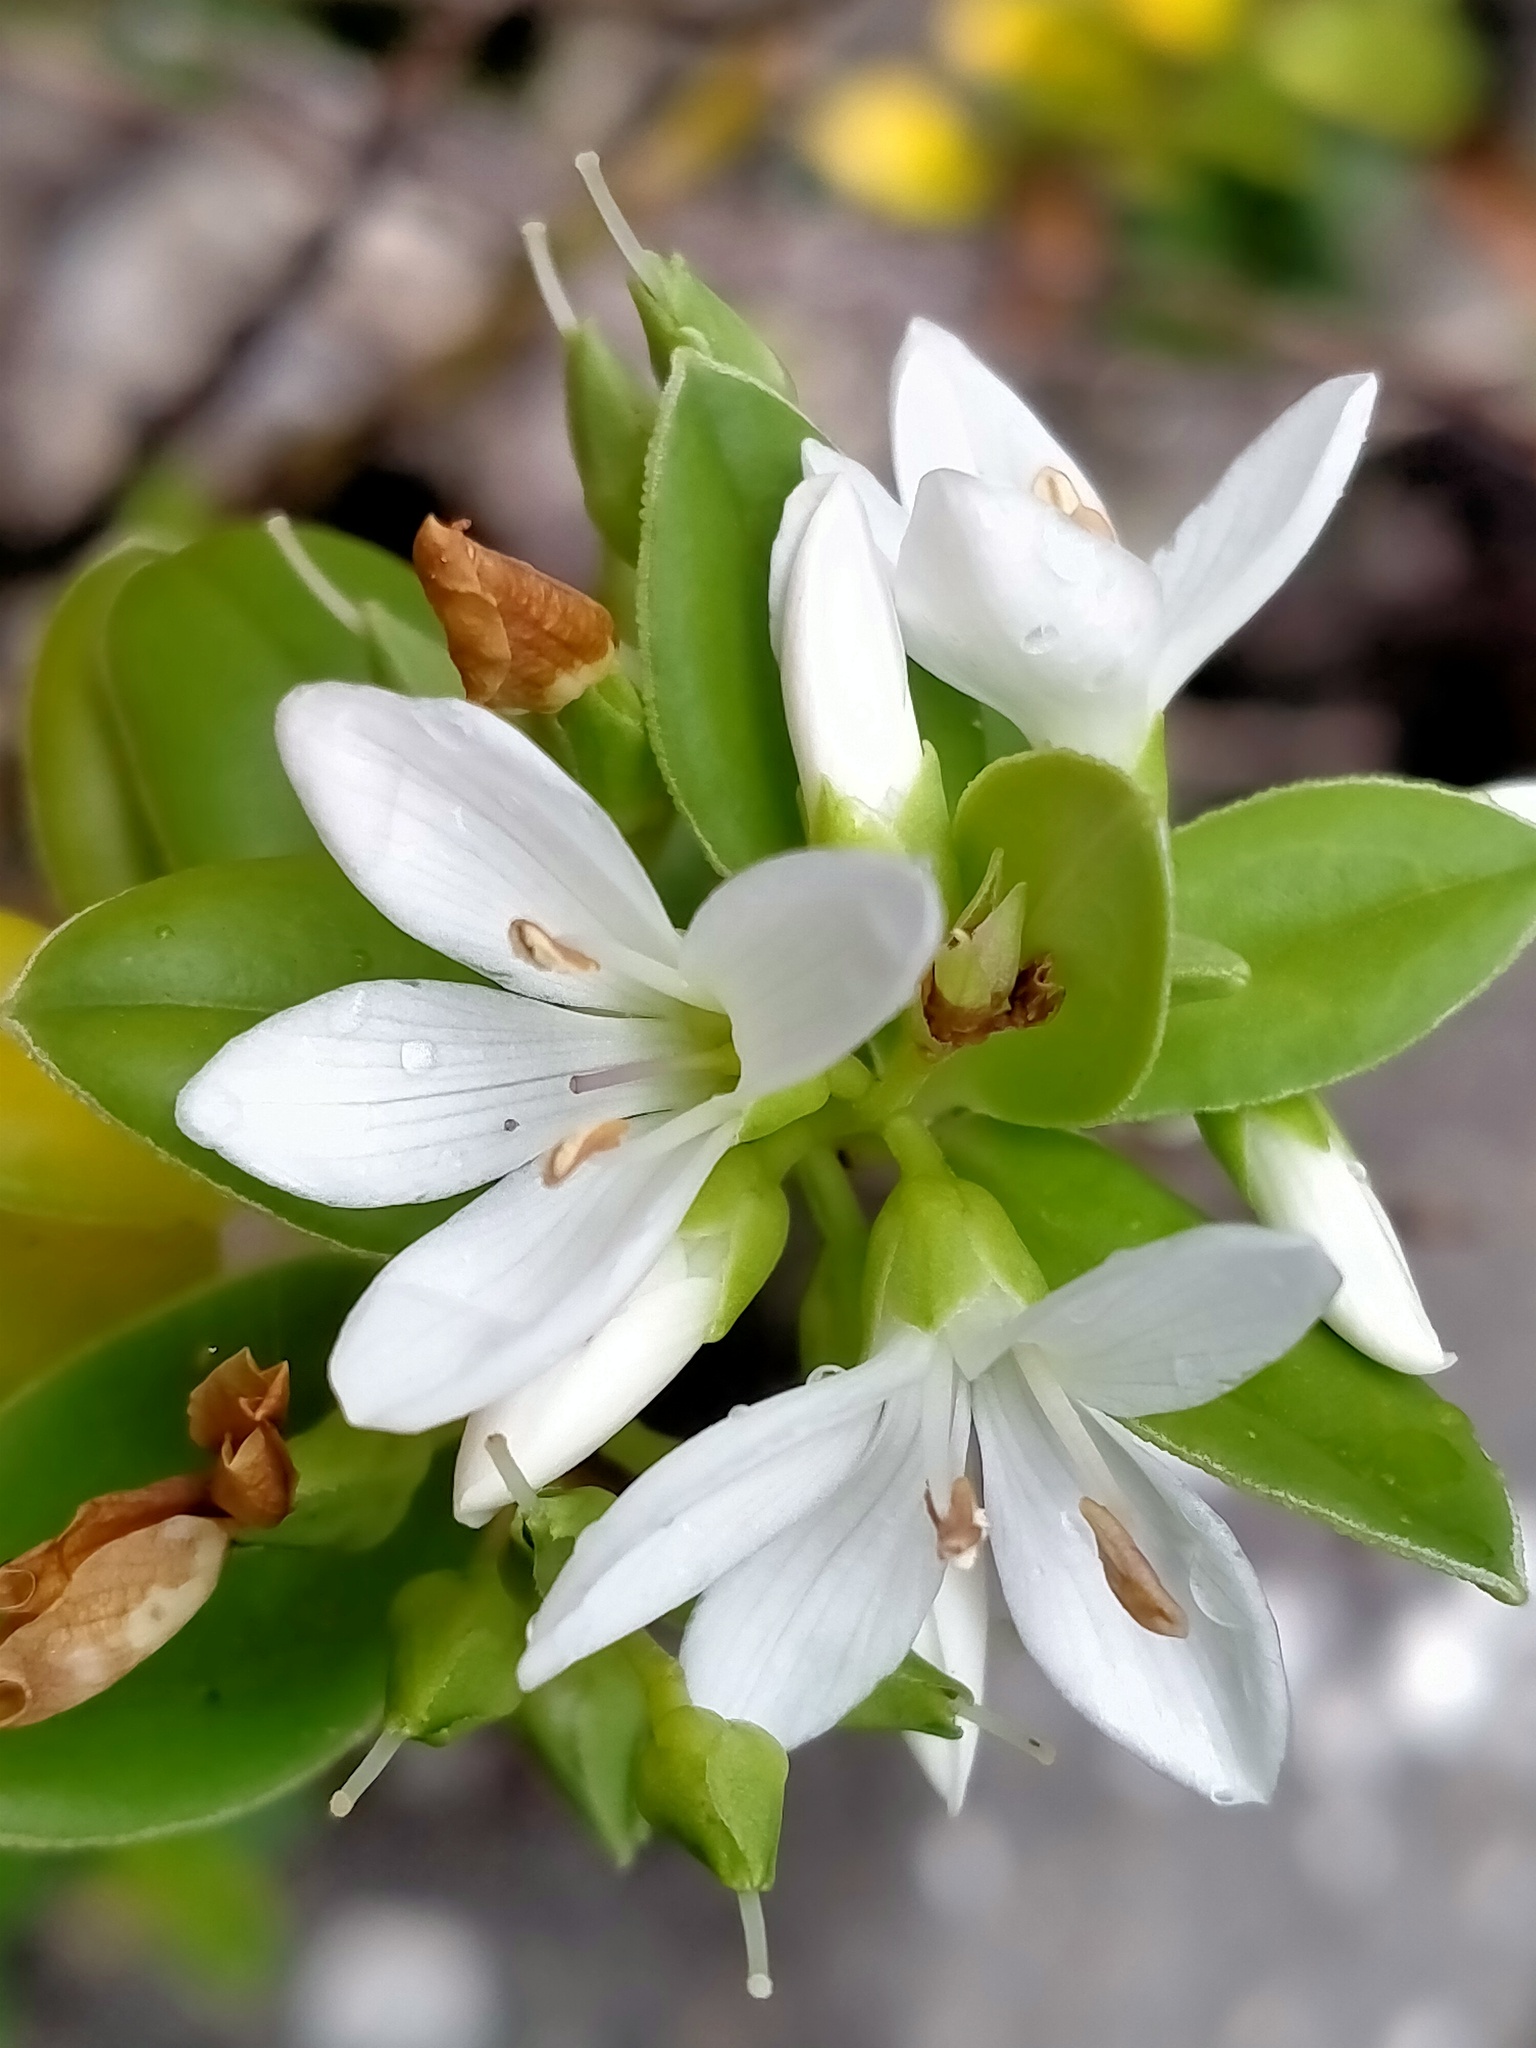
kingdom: Plantae
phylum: Tracheophyta
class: Magnoliopsida
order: Lamiales
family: Plantaginaceae
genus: Veronica
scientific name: Veronica elliptica
